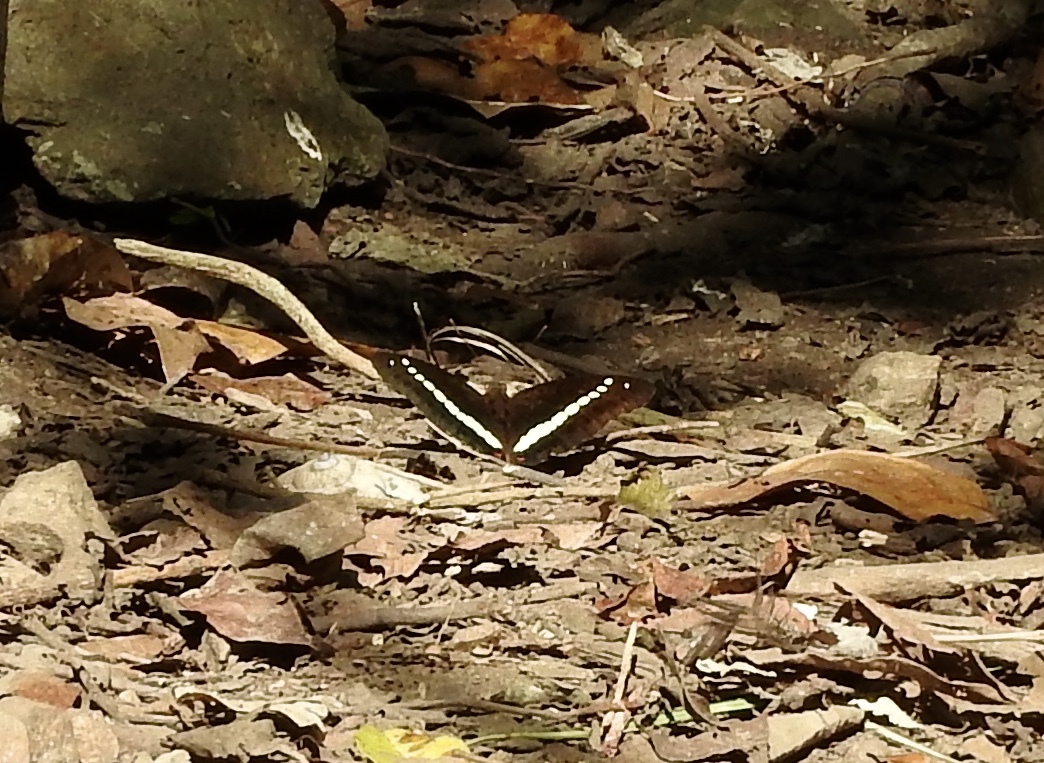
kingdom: Animalia
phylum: Arthropoda
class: Insecta
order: Lepidoptera
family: Nymphalidae
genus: Euthalia
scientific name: Euthalia recta
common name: Redtail marquis
